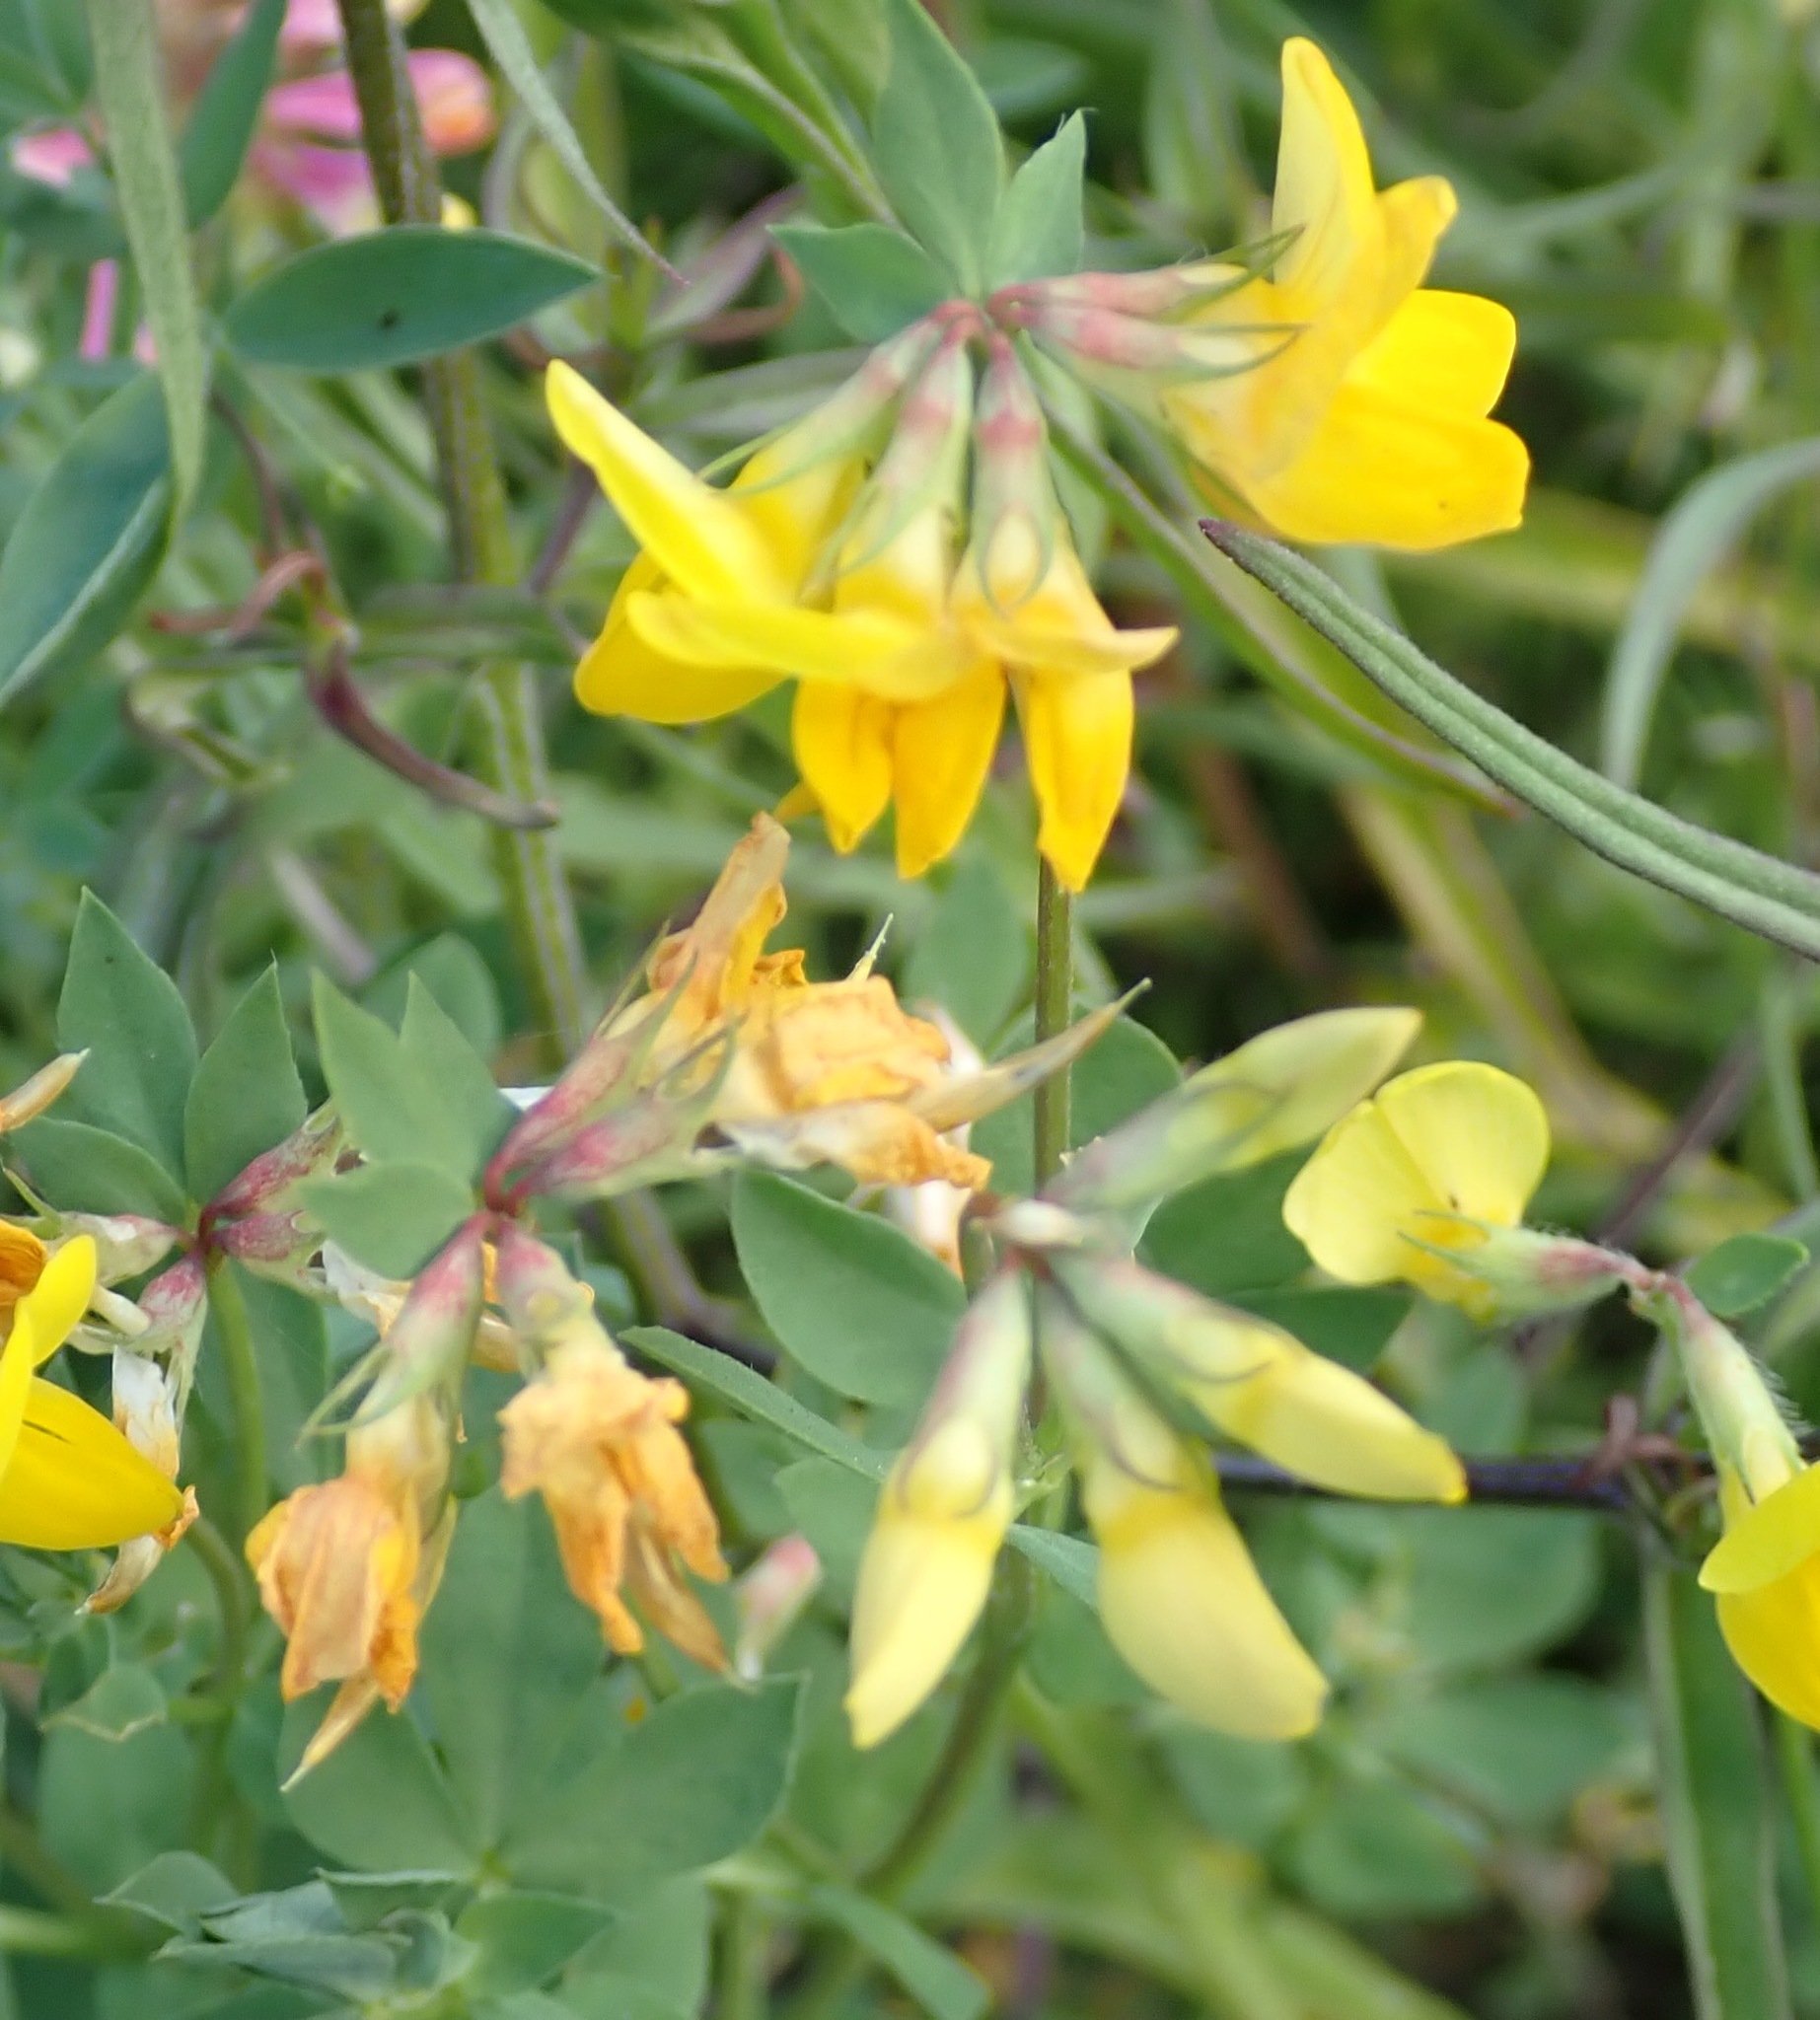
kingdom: Plantae
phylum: Tracheophyta
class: Magnoliopsida
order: Fabales
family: Fabaceae
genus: Lotus
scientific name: Lotus corniculatus
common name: Common bird's-foot-trefoil
